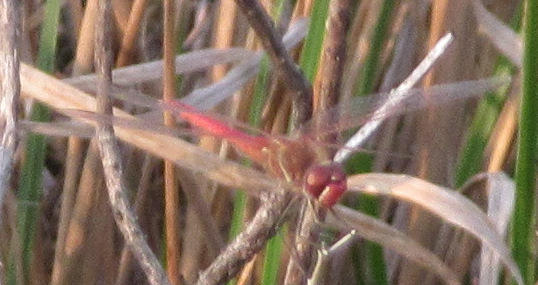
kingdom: Animalia
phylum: Arthropoda
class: Insecta
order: Odonata
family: Libellulidae
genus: Sympetrum
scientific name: Sympetrum fonscolombii
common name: Red-veined darter
